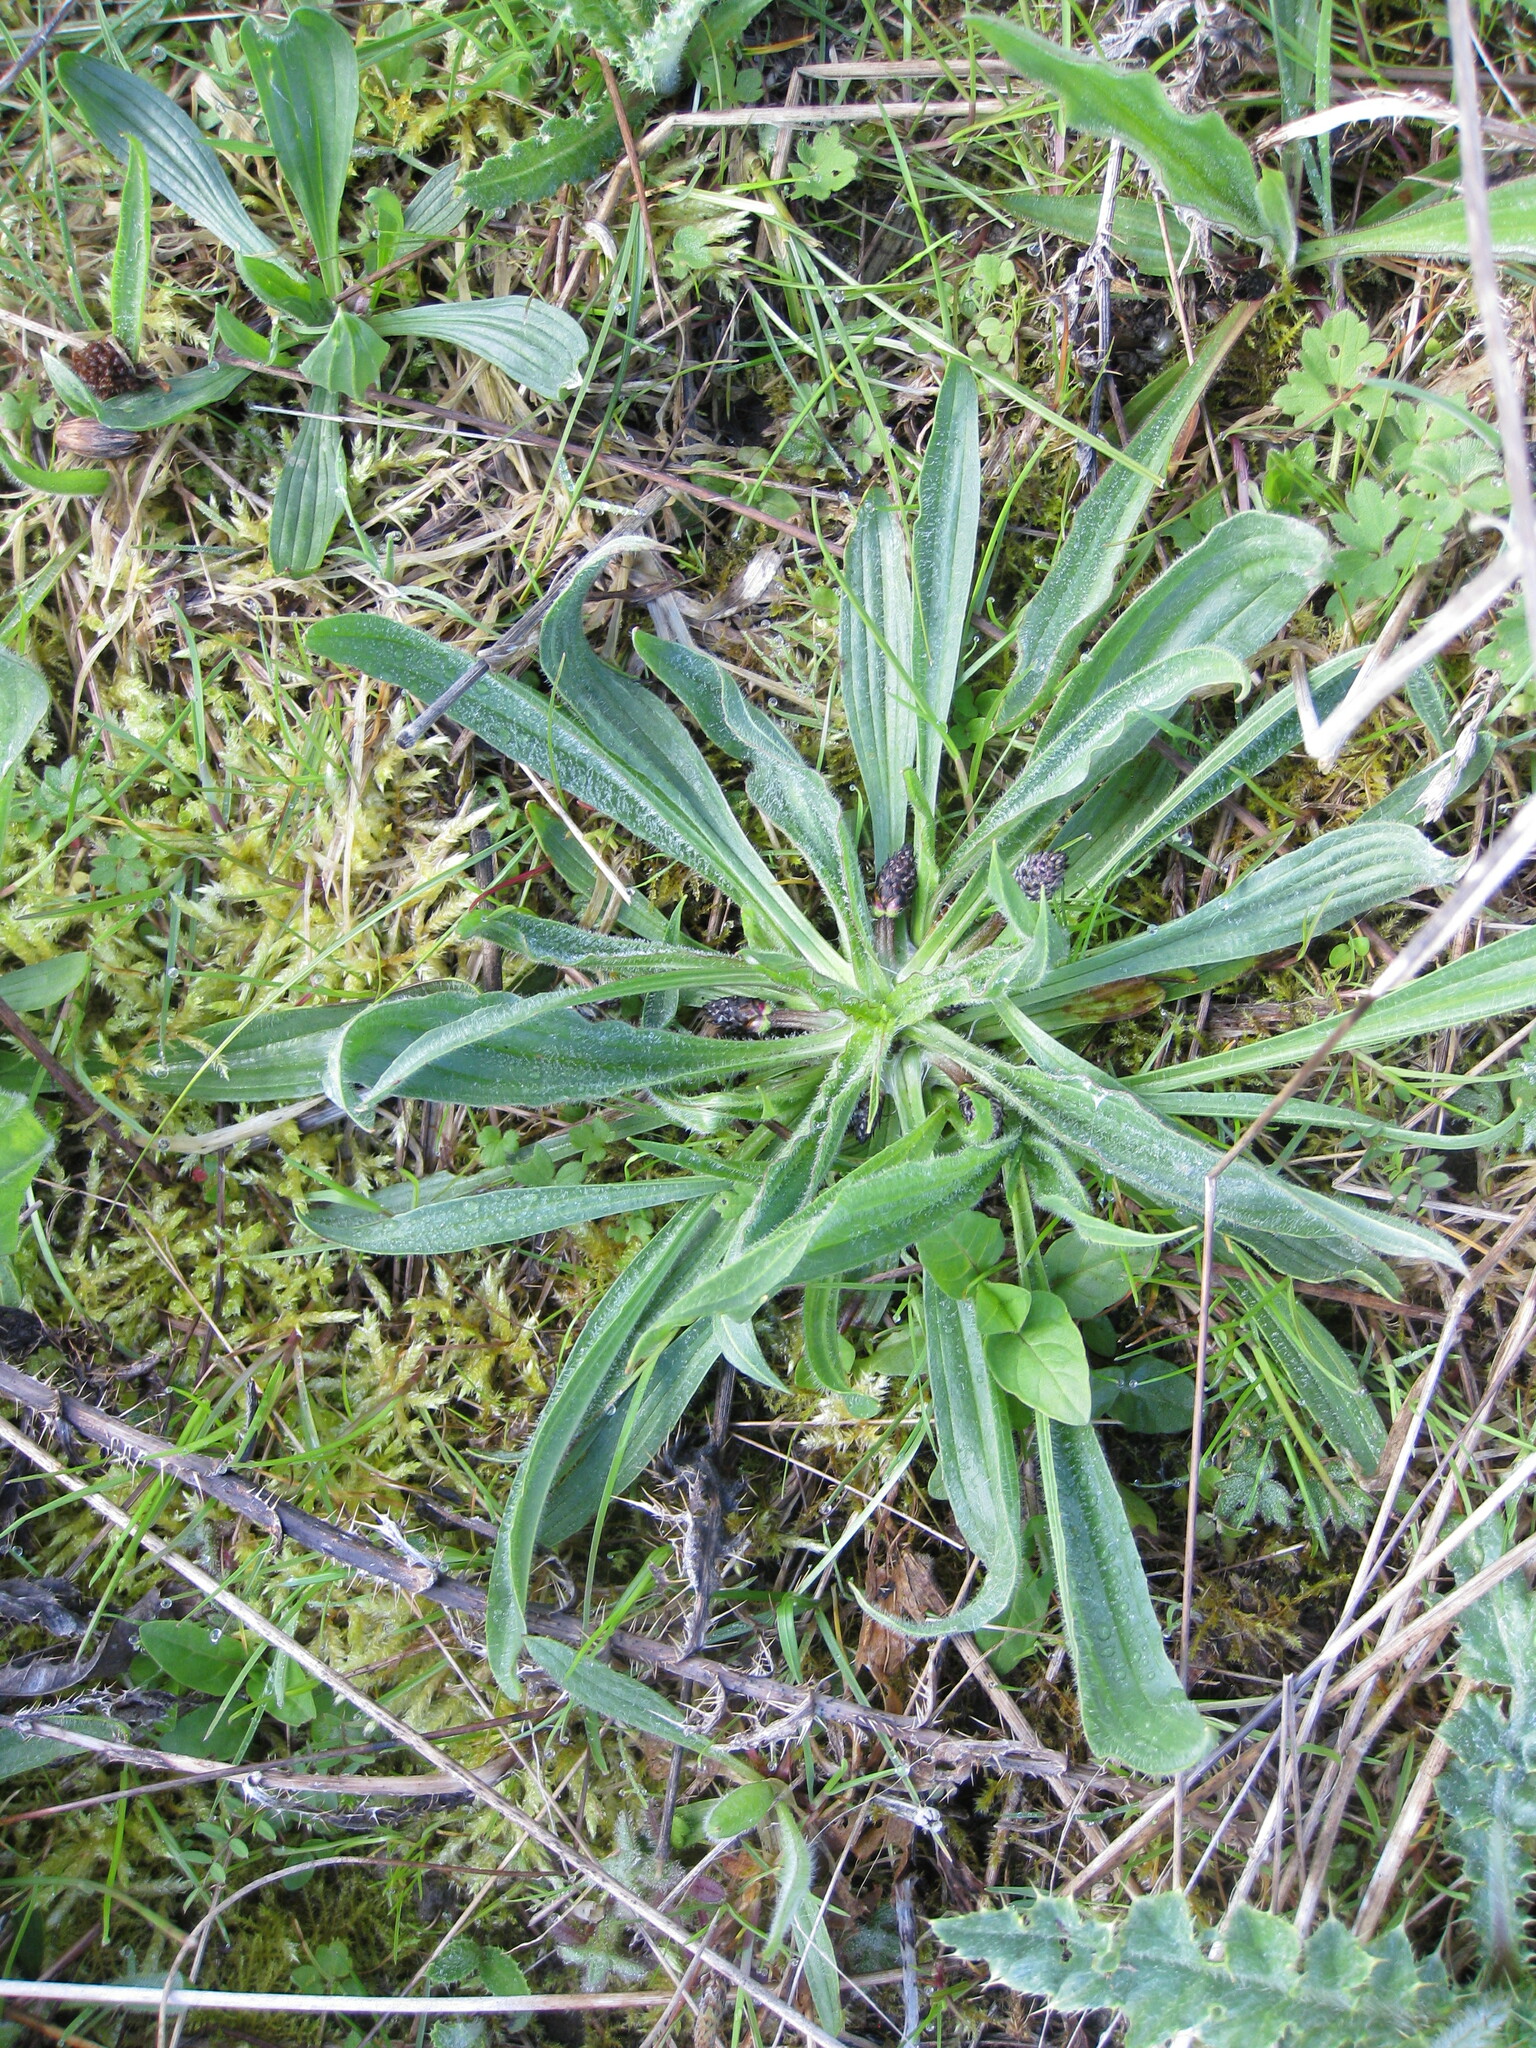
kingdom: Plantae
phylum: Tracheophyta
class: Magnoliopsida
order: Lamiales
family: Plantaginaceae
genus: Plantago
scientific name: Plantago lanceolata
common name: Ribwort plantain
